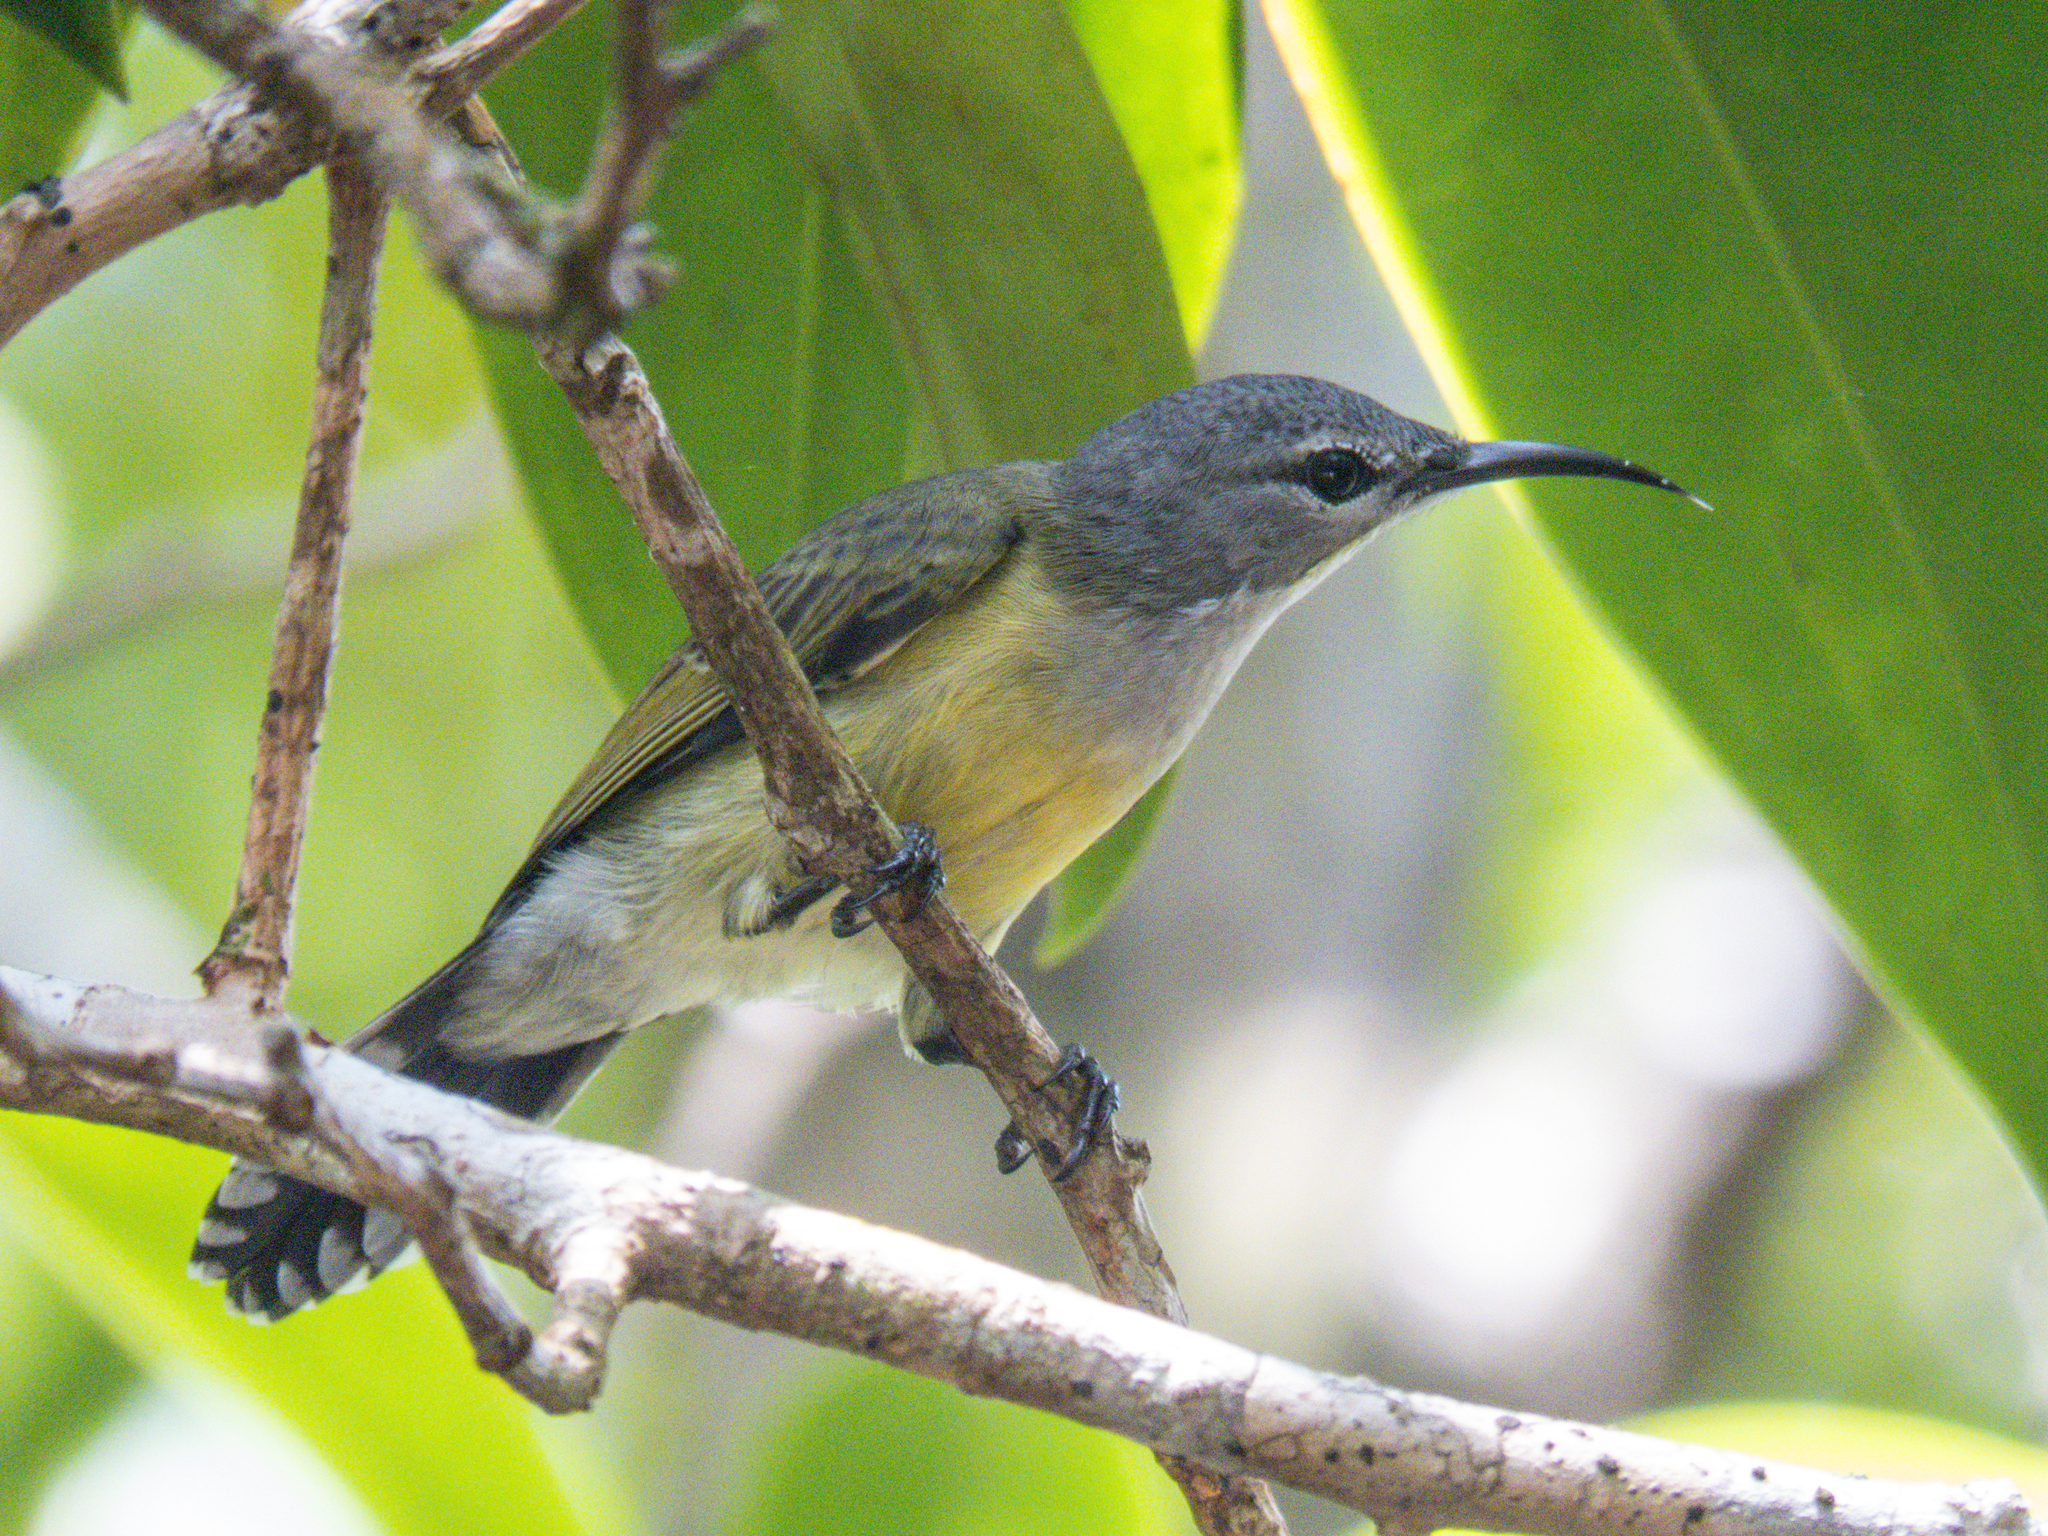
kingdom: Animalia
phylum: Chordata
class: Aves
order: Passeriformes
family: Nectariniidae
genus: Leptocoma
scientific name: Leptocoma calcostetha
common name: Copper-throated sunbird
